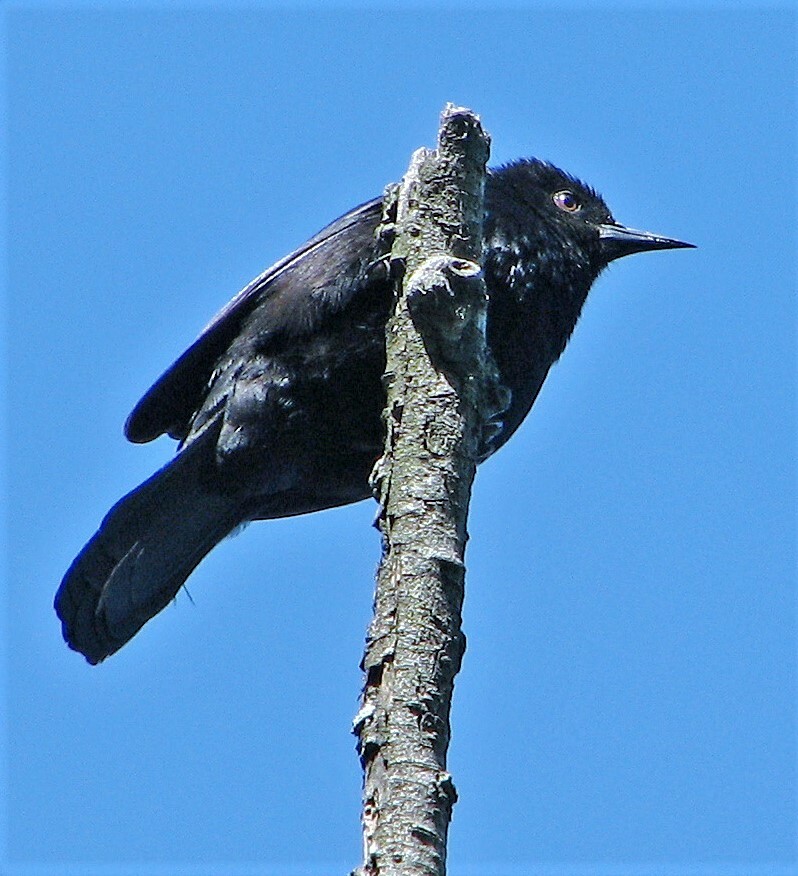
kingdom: Animalia
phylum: Chordata
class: Aves
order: Passeriformes
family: Icteridae
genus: Icterus
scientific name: Icterus cayanensis
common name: Epaulet oriole
